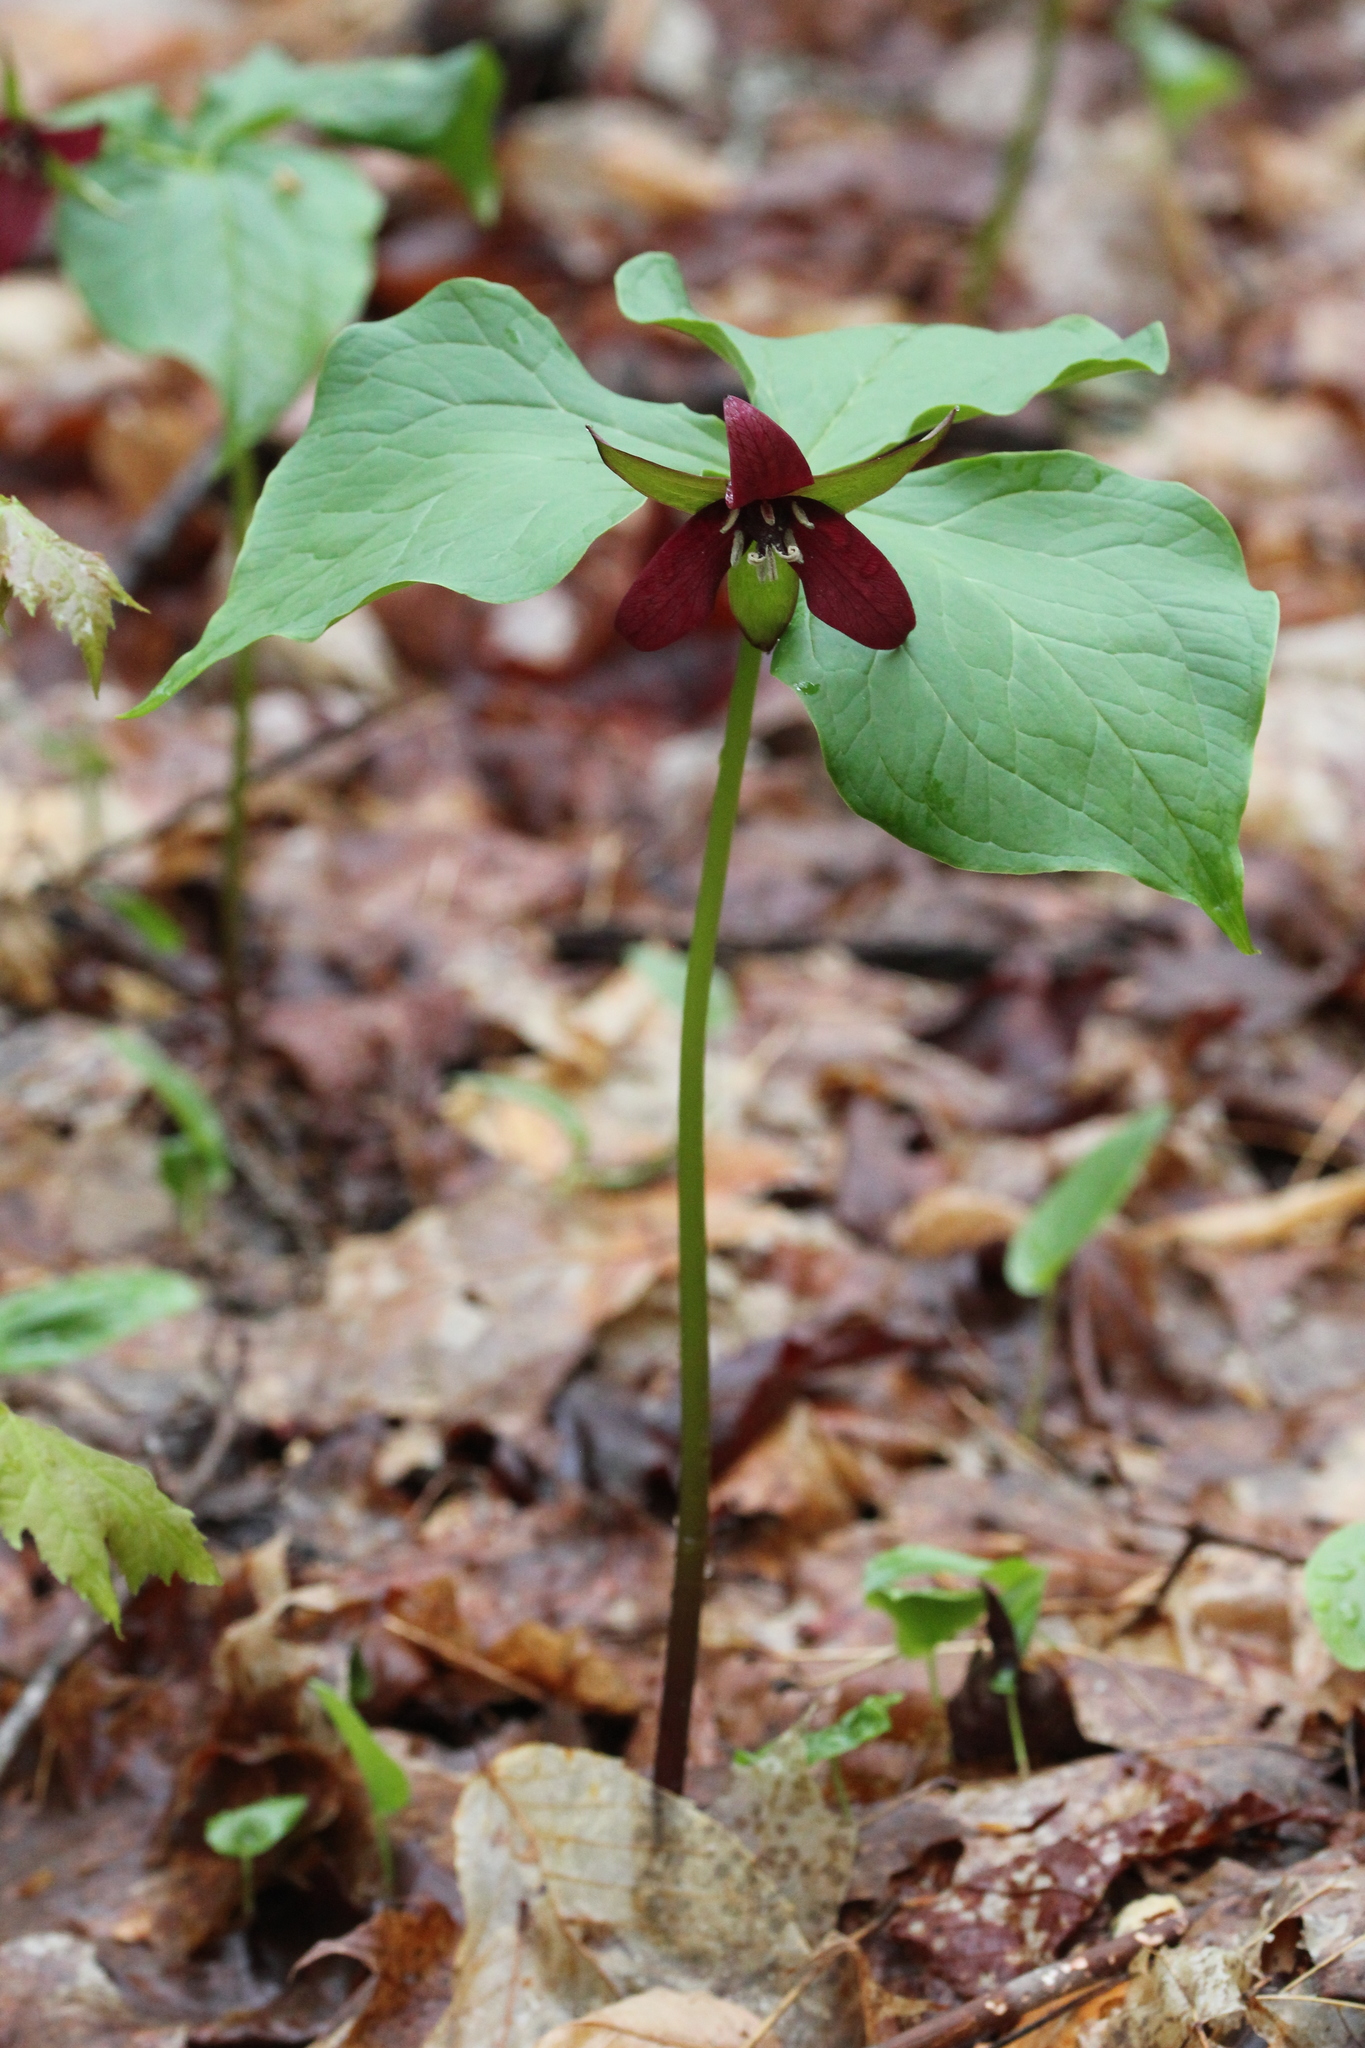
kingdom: Plantae
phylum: Tracheophyta
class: Liliopsida
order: Liliales
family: Melanthiaceae
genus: Trillium
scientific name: Trillium erectum
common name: Purple trillium
